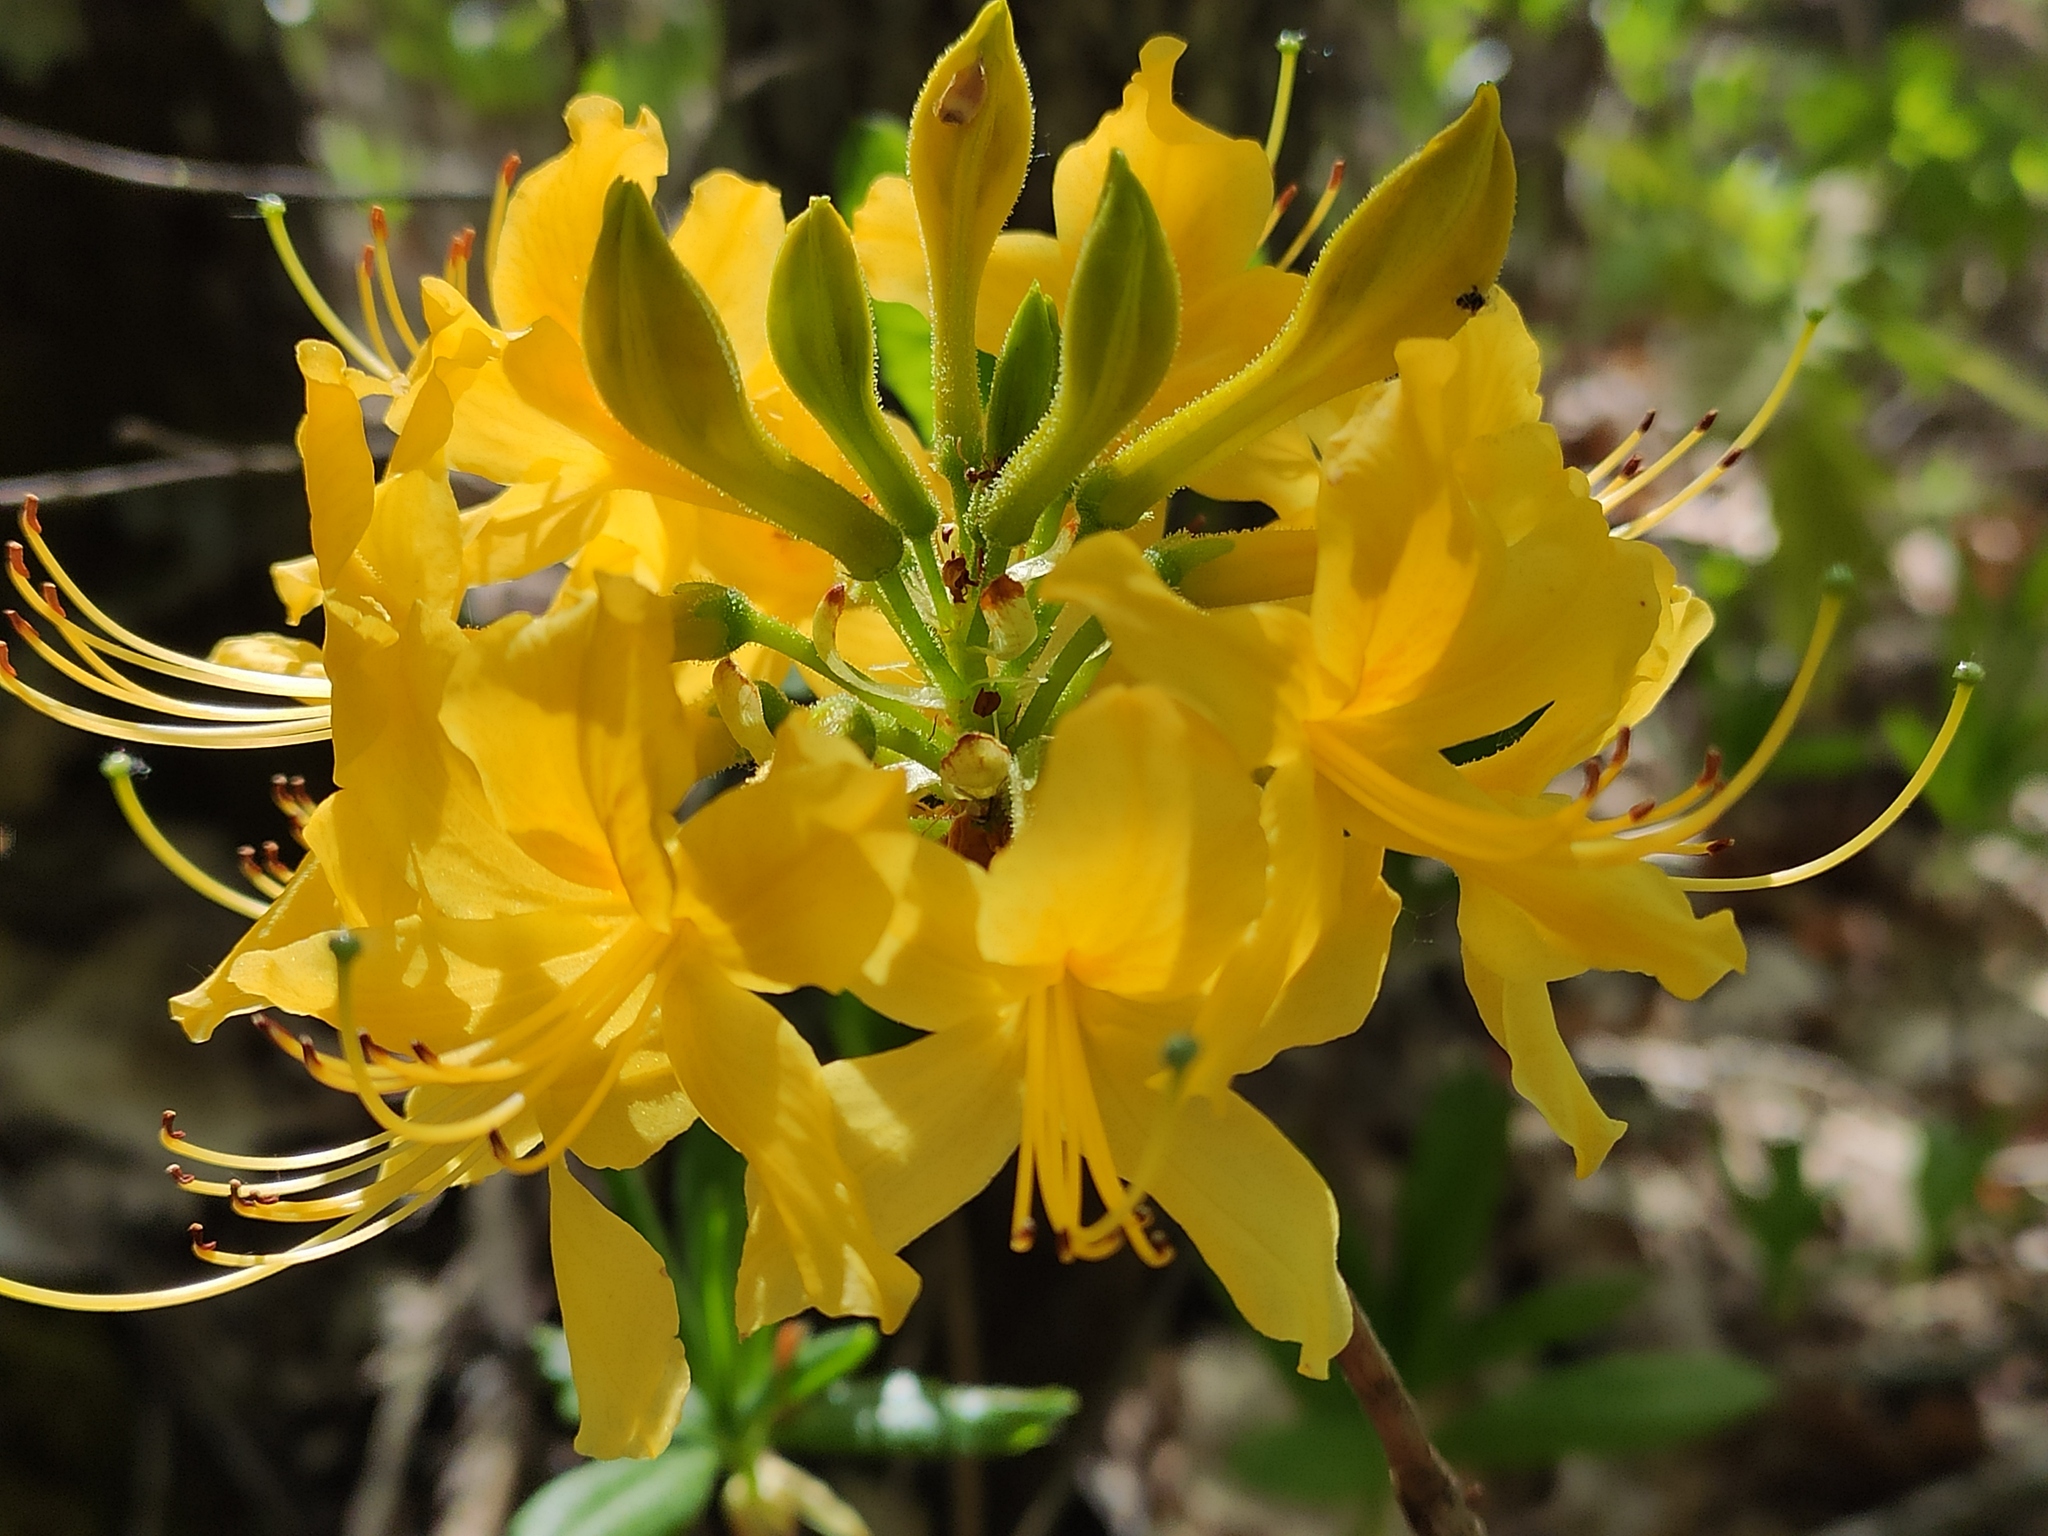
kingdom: Plantae
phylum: Tracheophyta
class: Magnoliopsida
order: Ericales
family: Ericaceae
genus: Rhododendron
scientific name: Rhododendron luteum
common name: Yellow azalea
